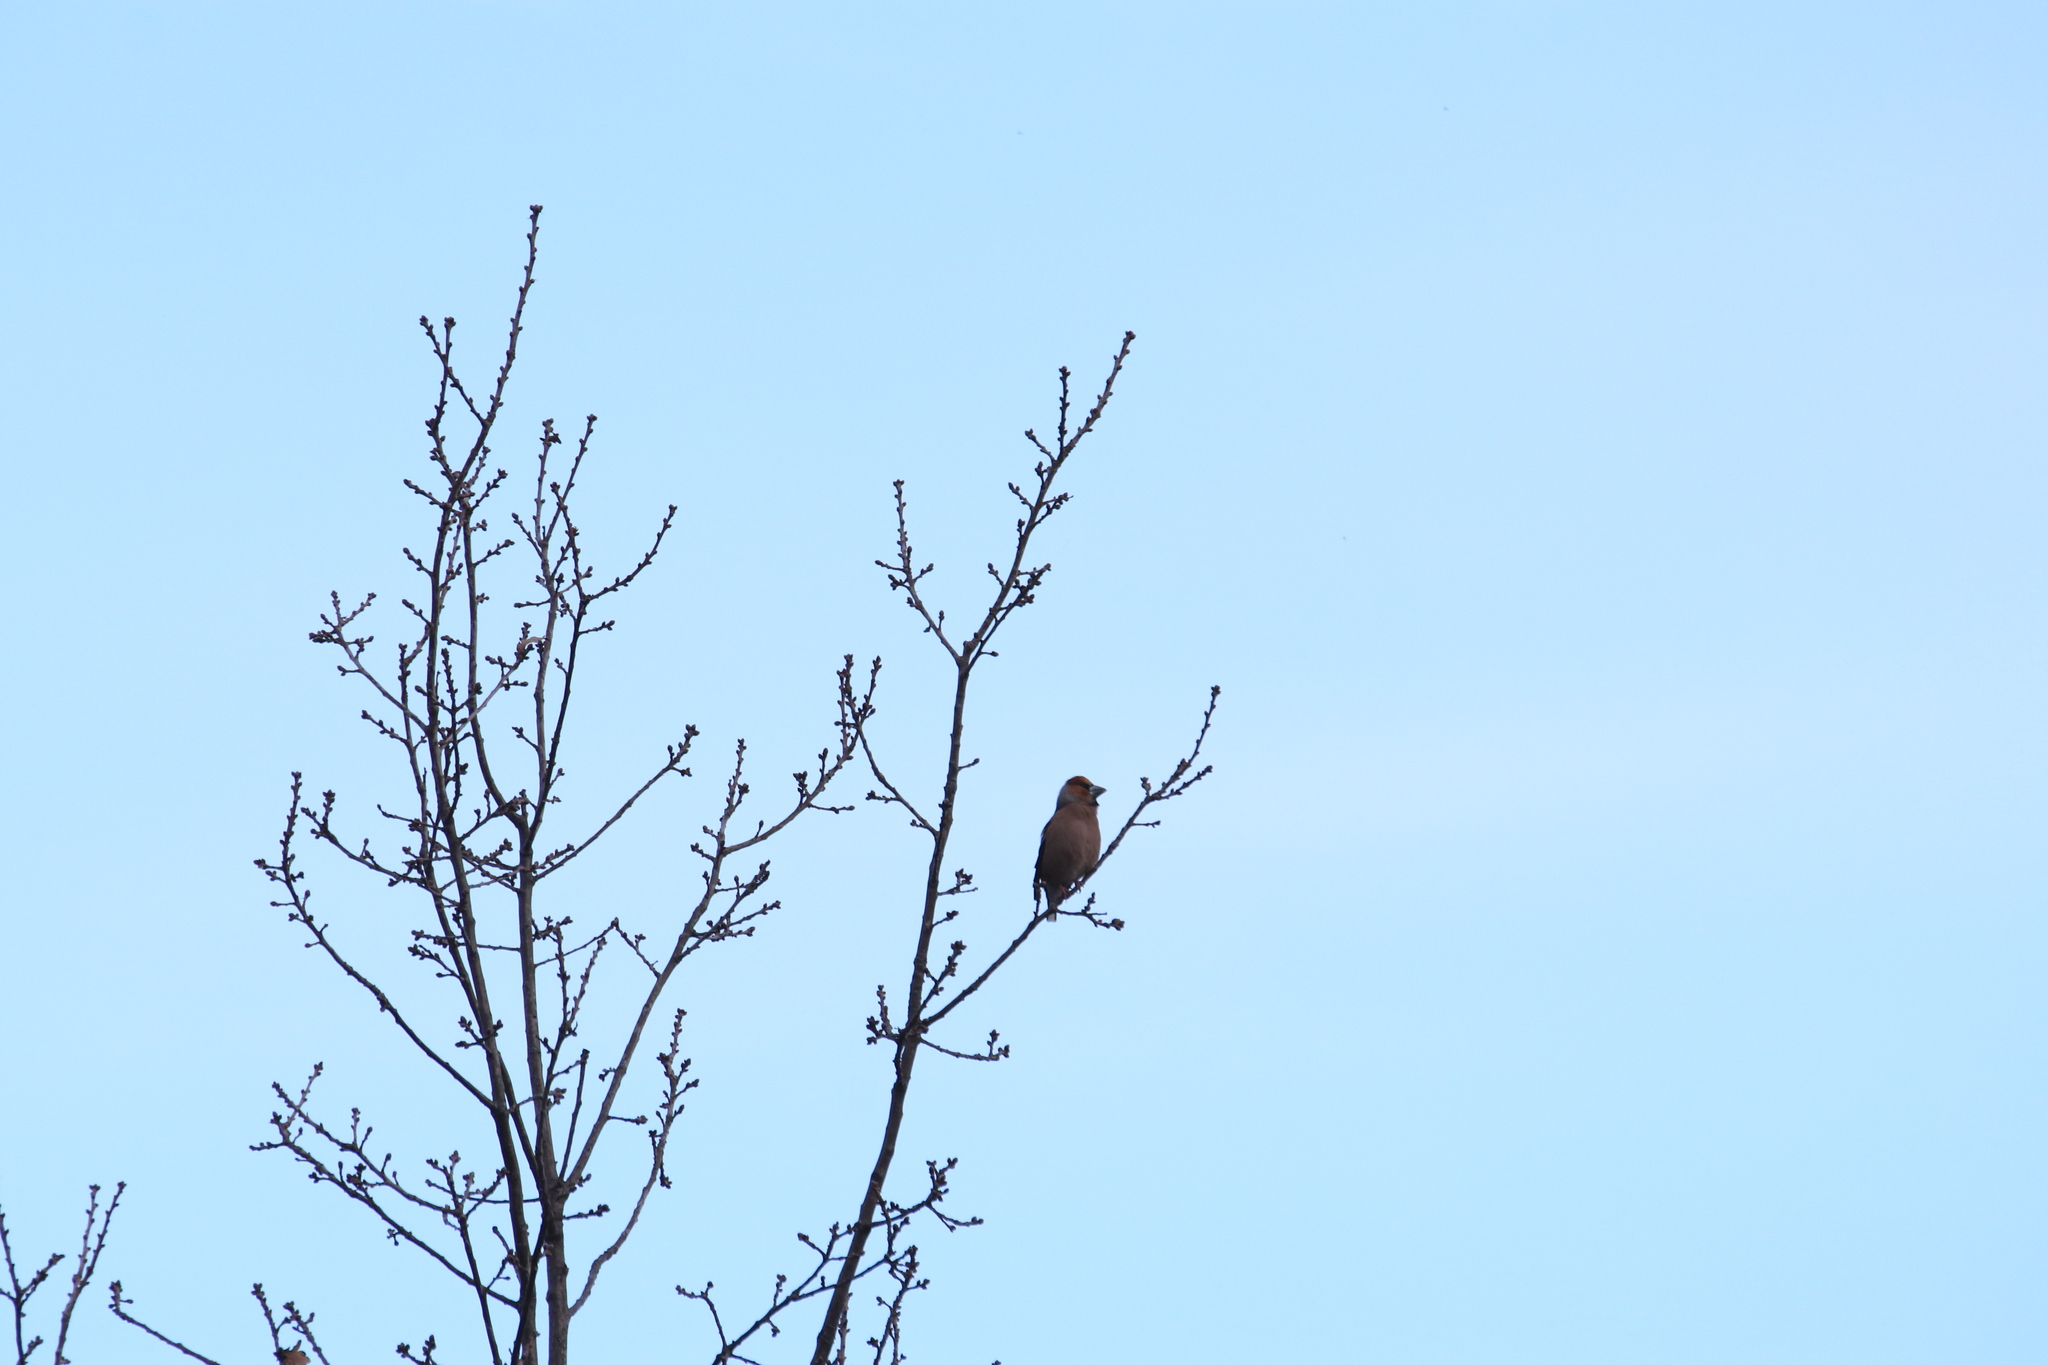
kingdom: Animalia
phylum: Chordata
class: Aves
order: Passeriformes
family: Fringillidae
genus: Coccothraustes
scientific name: Coccothraustes coccothraustes
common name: Hawfinch
